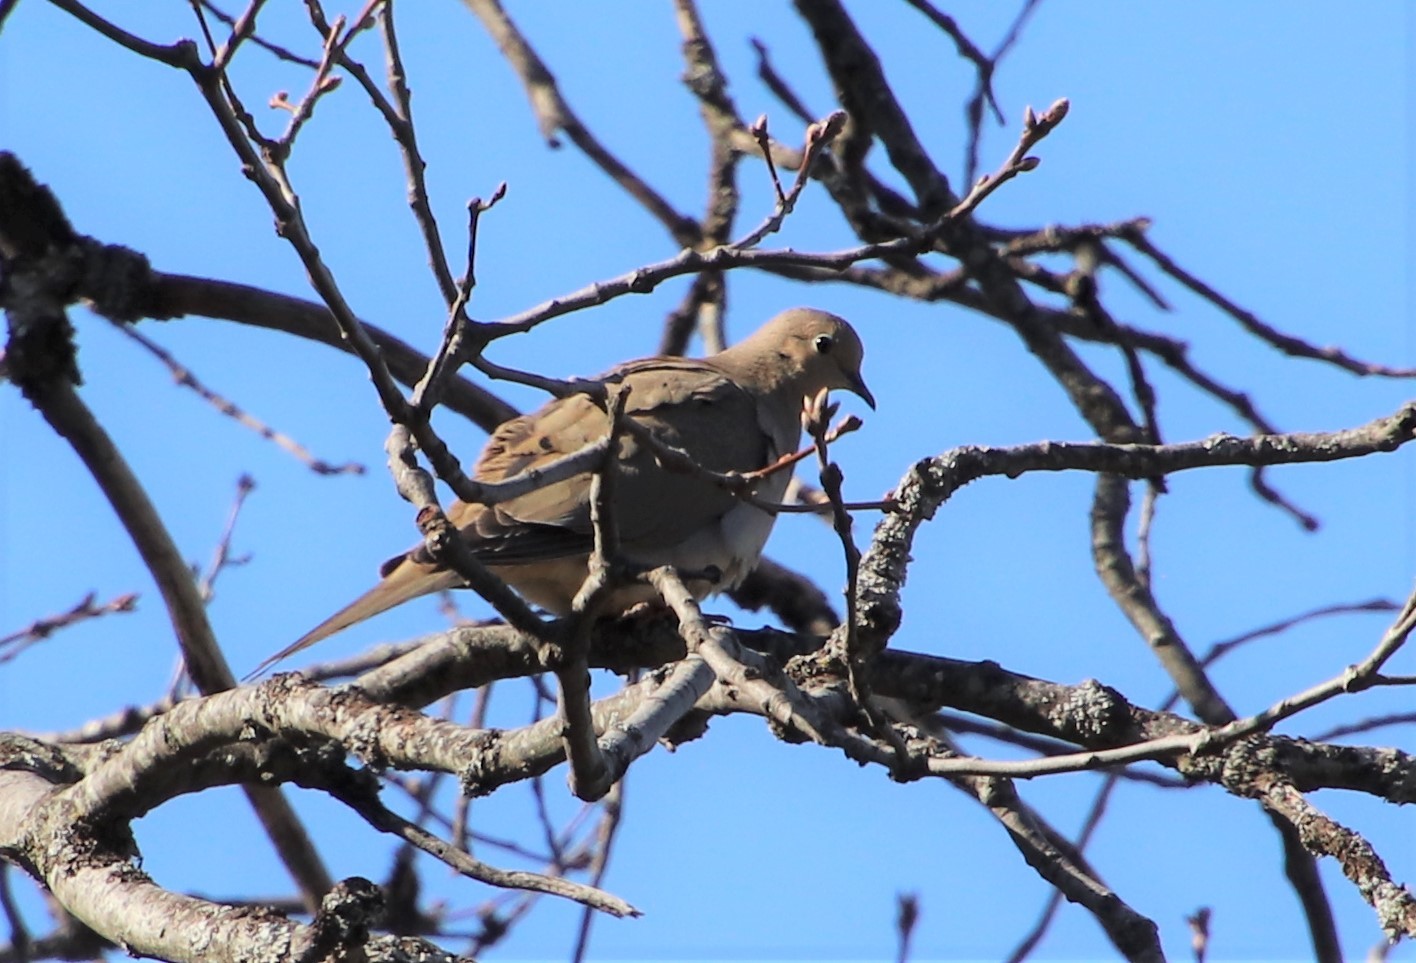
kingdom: Animalia
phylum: Chordata
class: Aves
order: Columbiformes
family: Columbidae
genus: Zenaida
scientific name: Zenaida macroura
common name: Mourning dove
